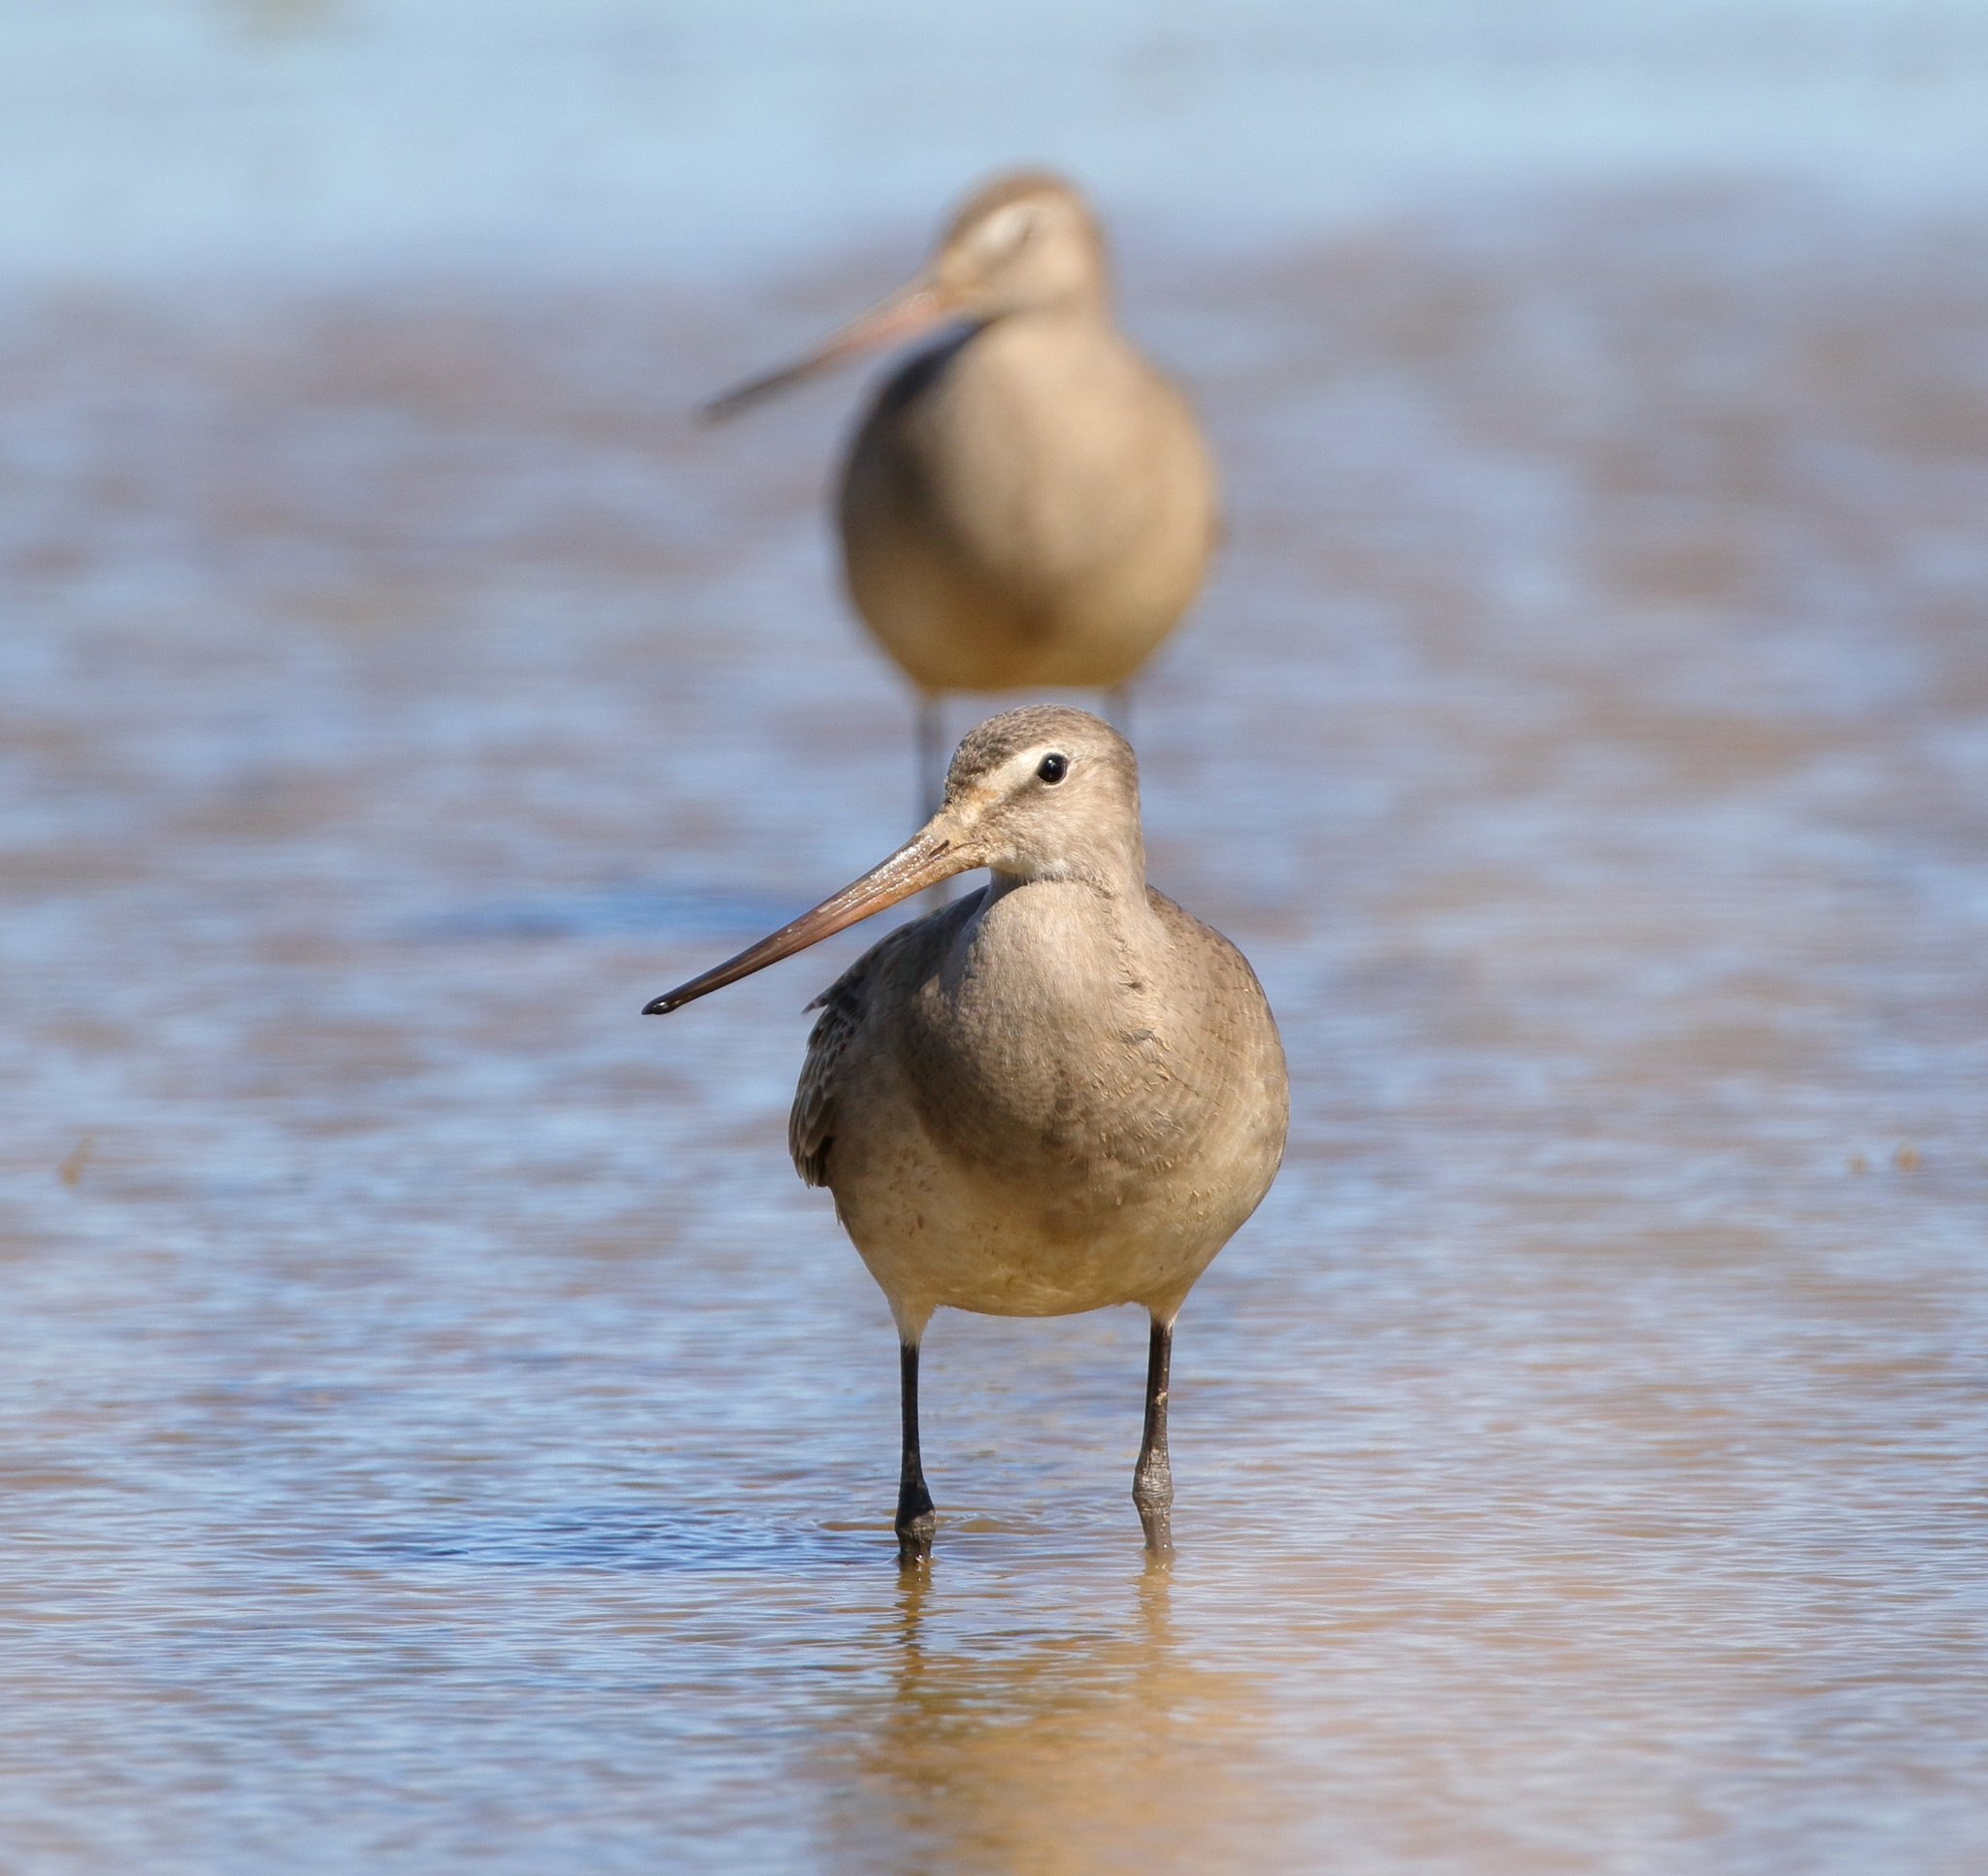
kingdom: Animalia
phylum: Chordata
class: Aves
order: Charadriiformes
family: Scolopacidae
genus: Limosa
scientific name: Limosa haemastica
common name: Hudsonian godwit
